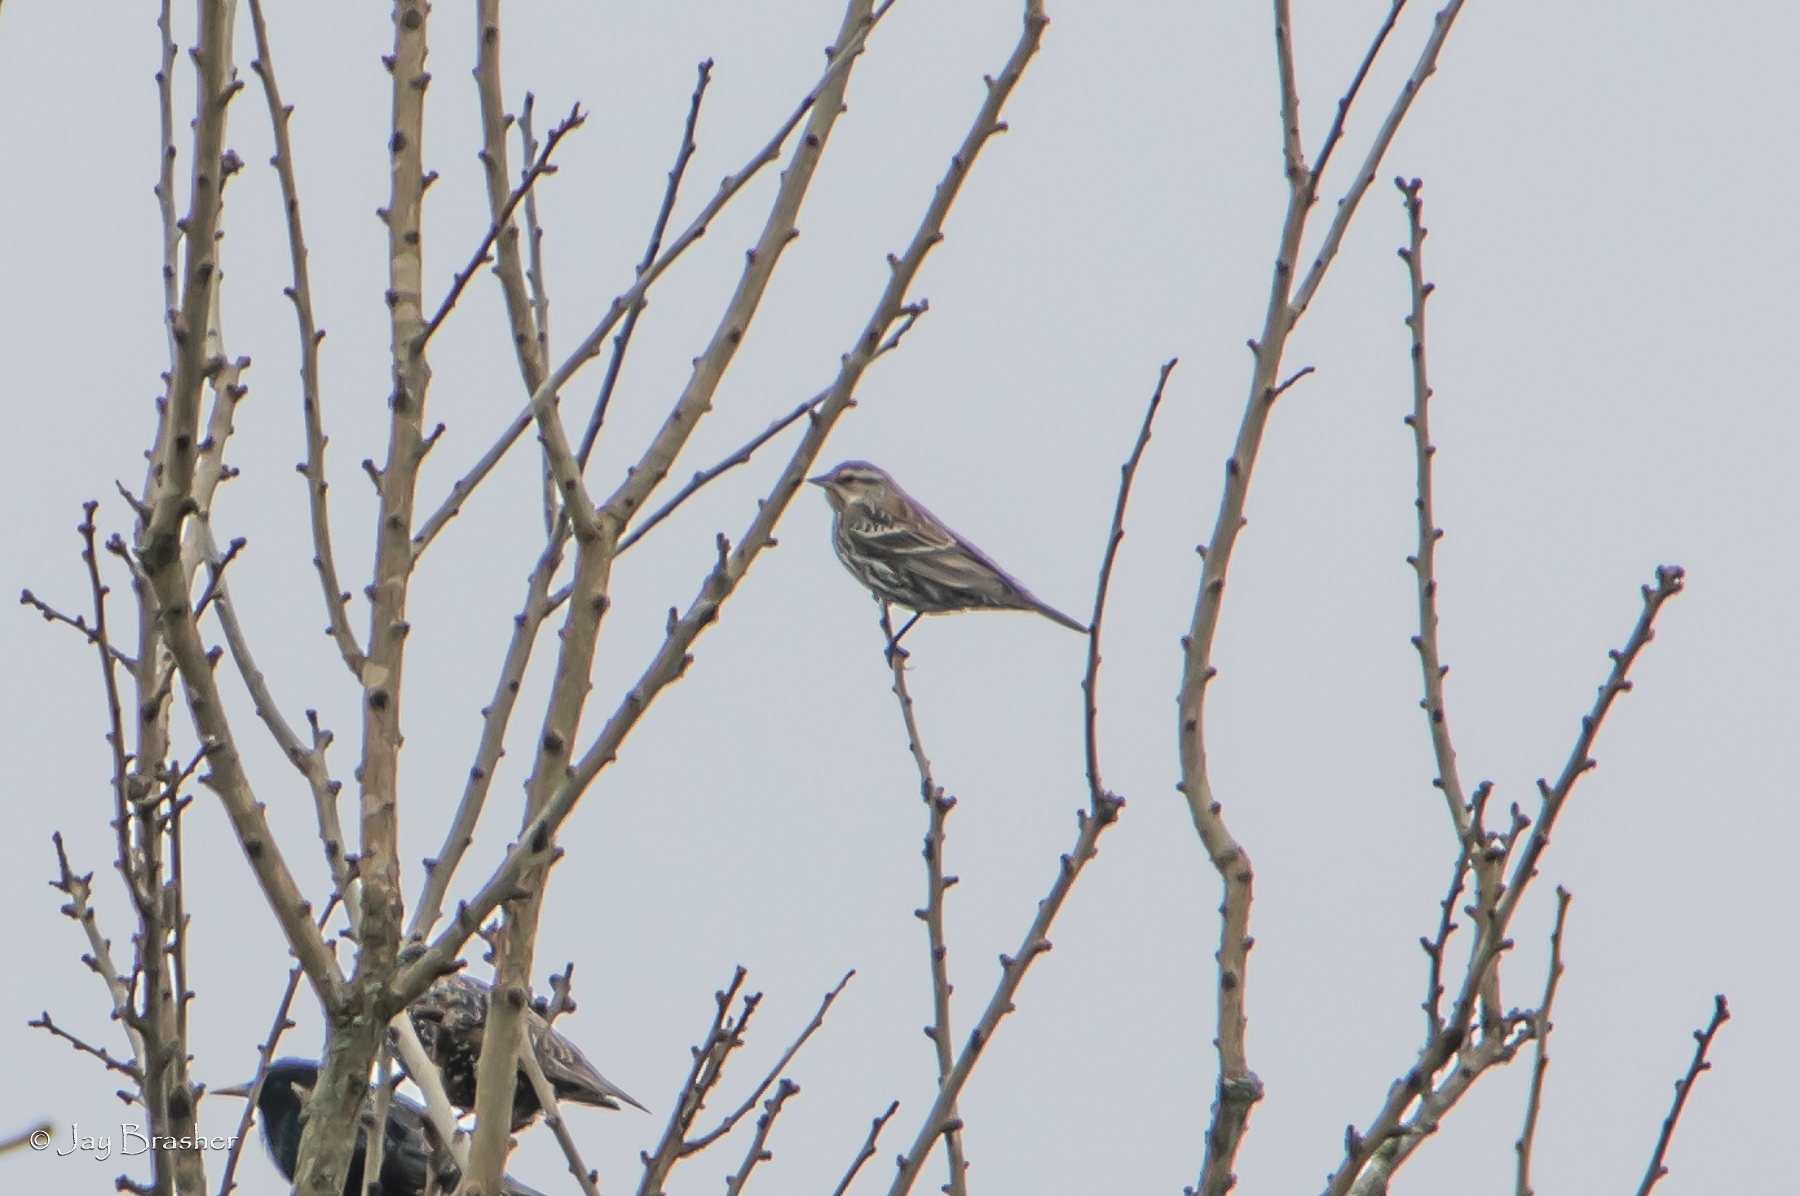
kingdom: Animalia
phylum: Chordata
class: Aves
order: Passeriformes
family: Icteridae
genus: Agelaius
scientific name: Agelaius phoeniceus
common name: Red-winged blackbird
